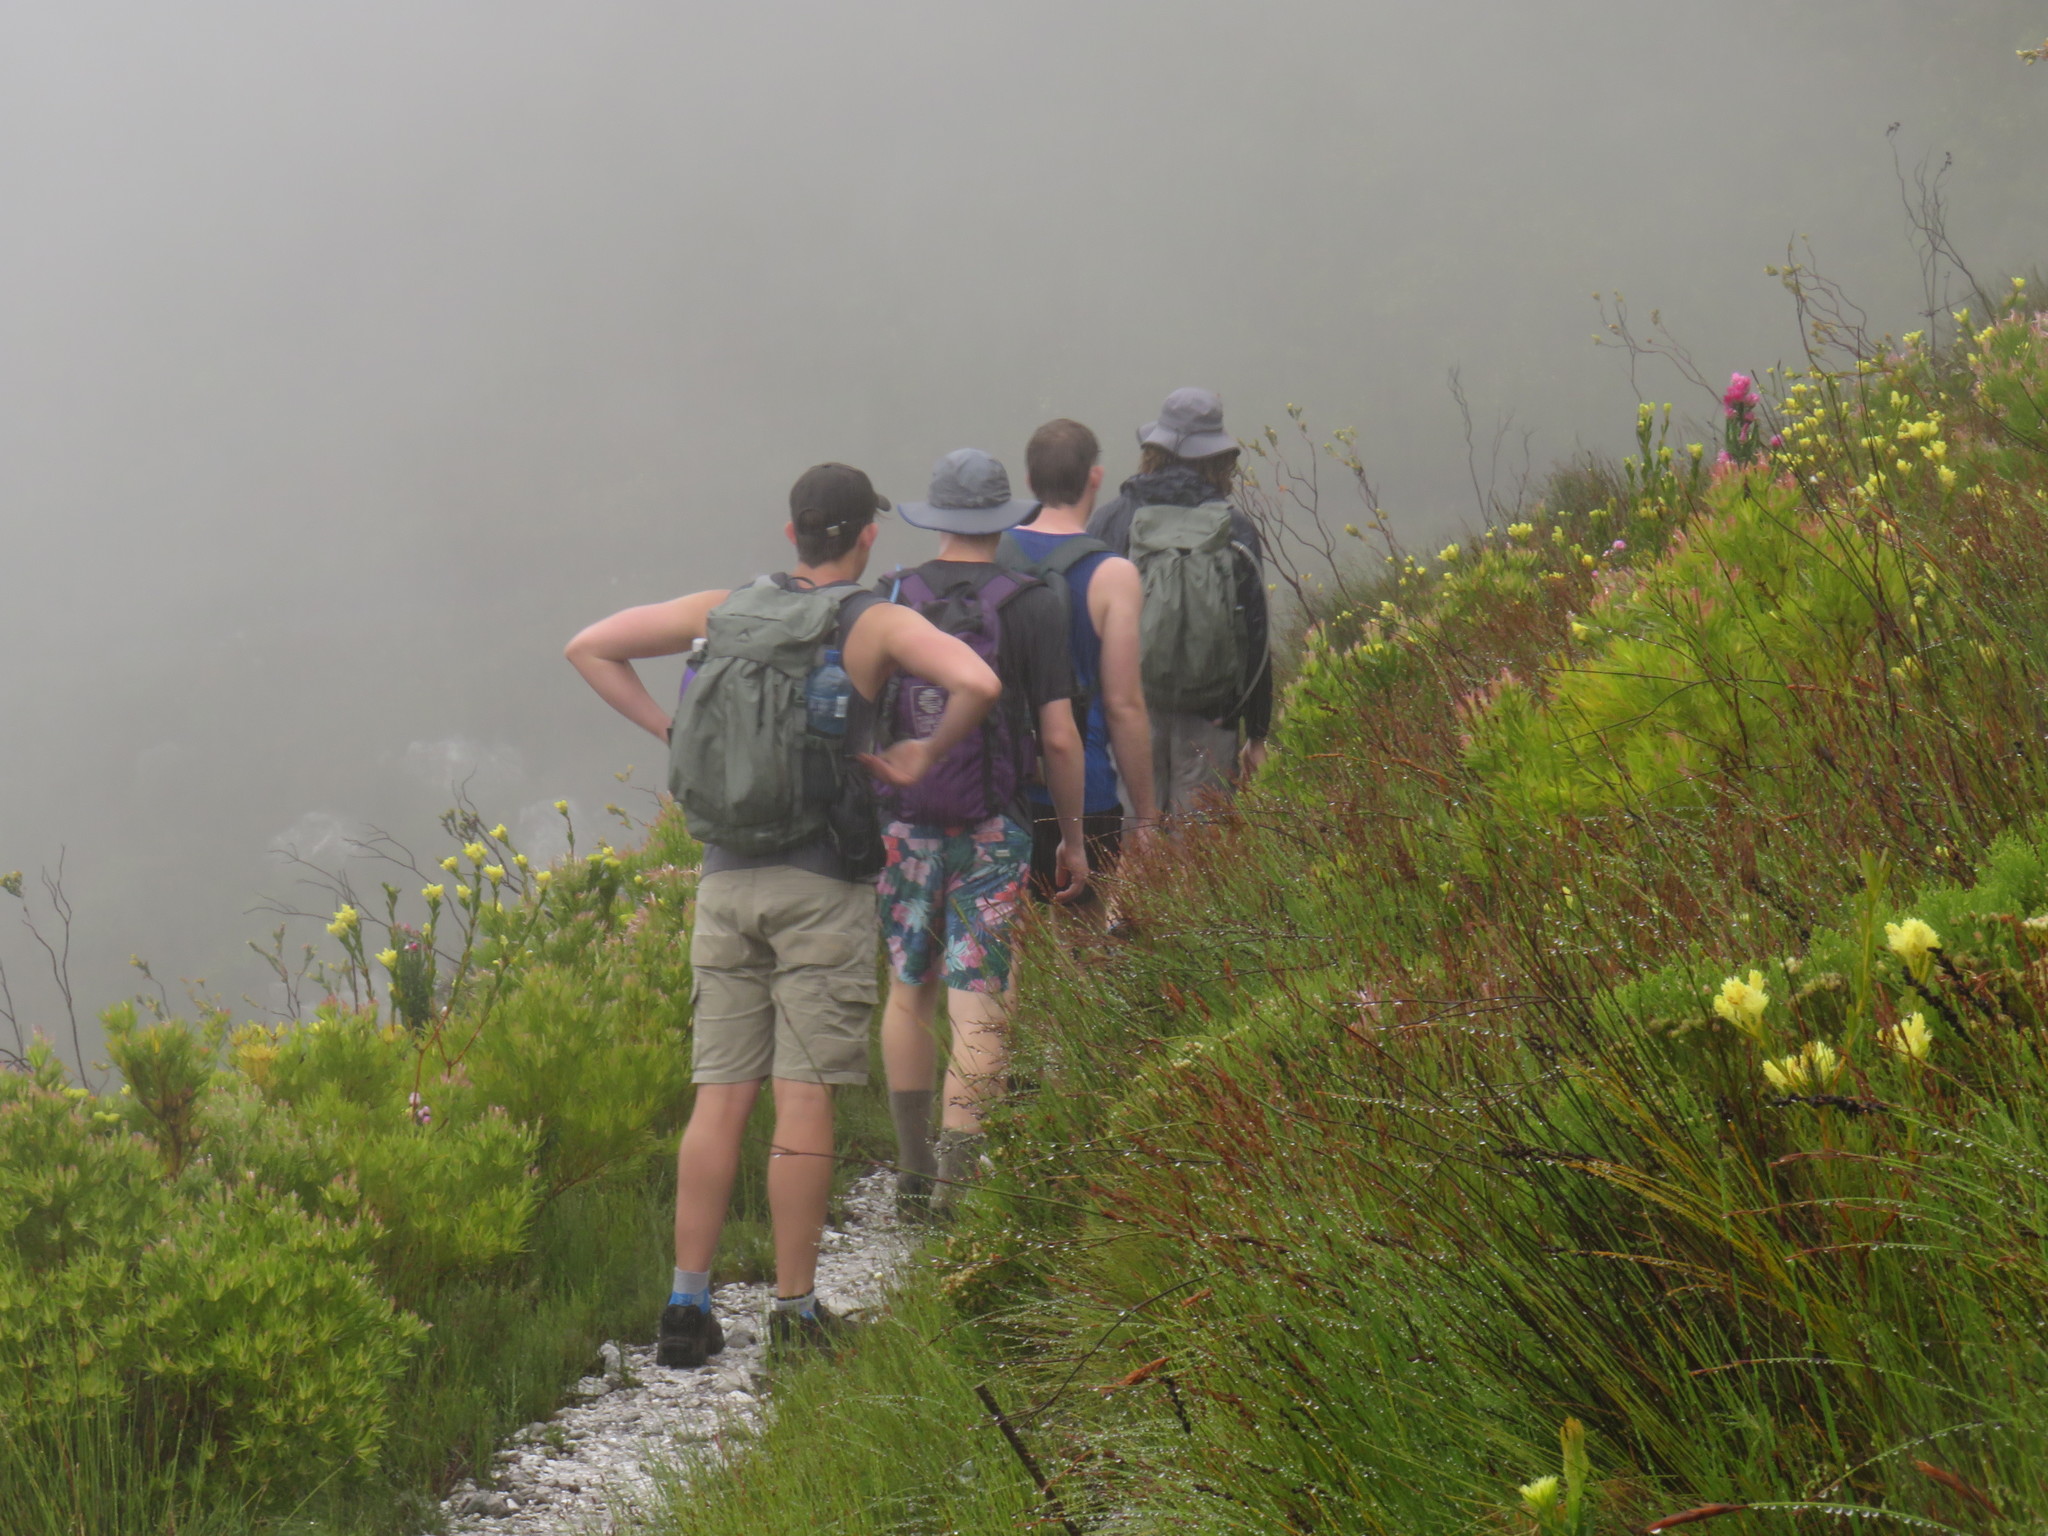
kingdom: Plantae
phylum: Tracheophyta
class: Magnoliopsida
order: Proteales
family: Proteaceae
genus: Aulax
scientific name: Aulax umbellata
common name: Broad-leaf featherbush
